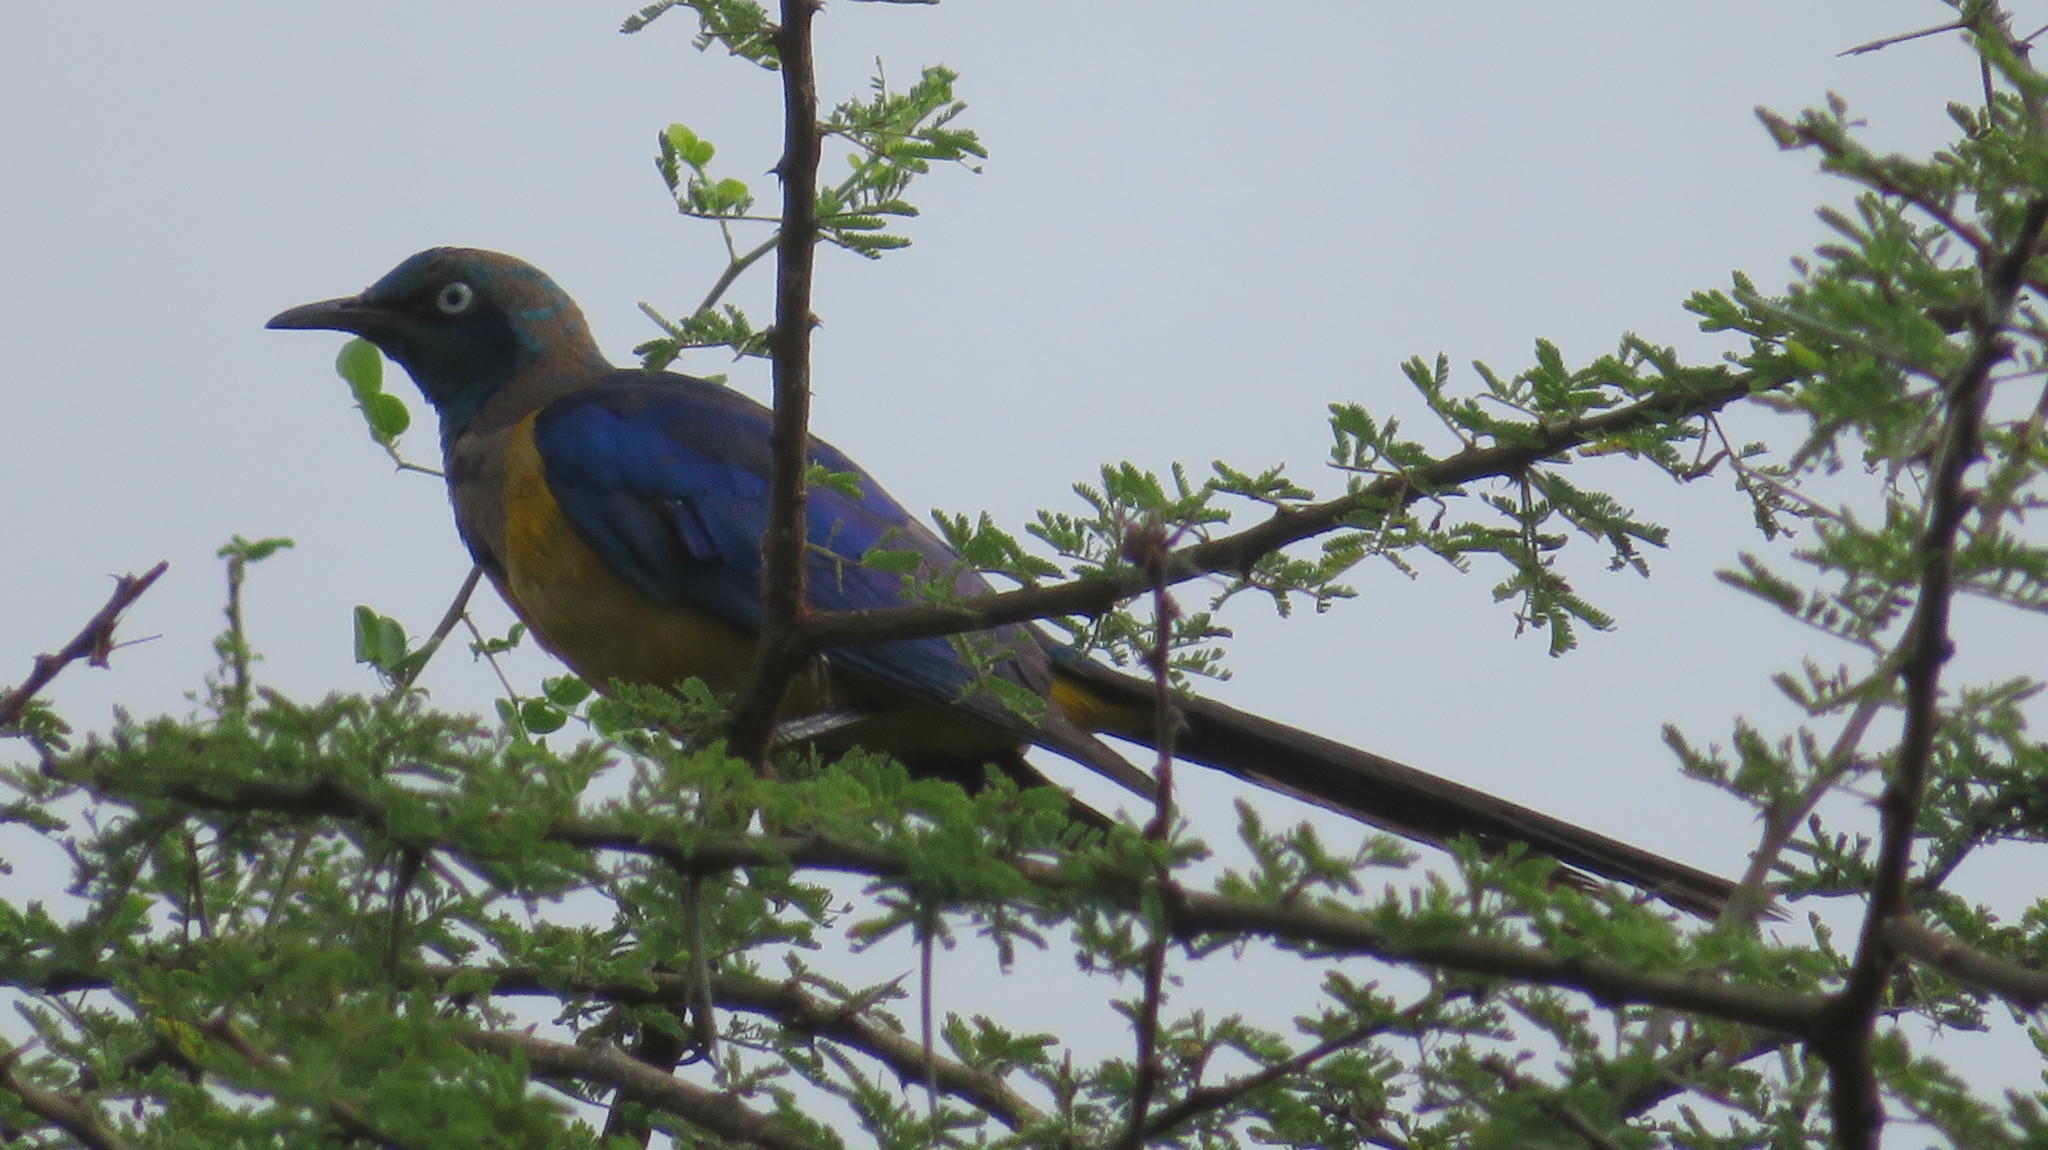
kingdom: Animalia
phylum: Chordata
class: Aves
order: Passeriformes
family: Sturnidae
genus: Lamprotornis
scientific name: Lamprotornis regius
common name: Golden-breasted starling
